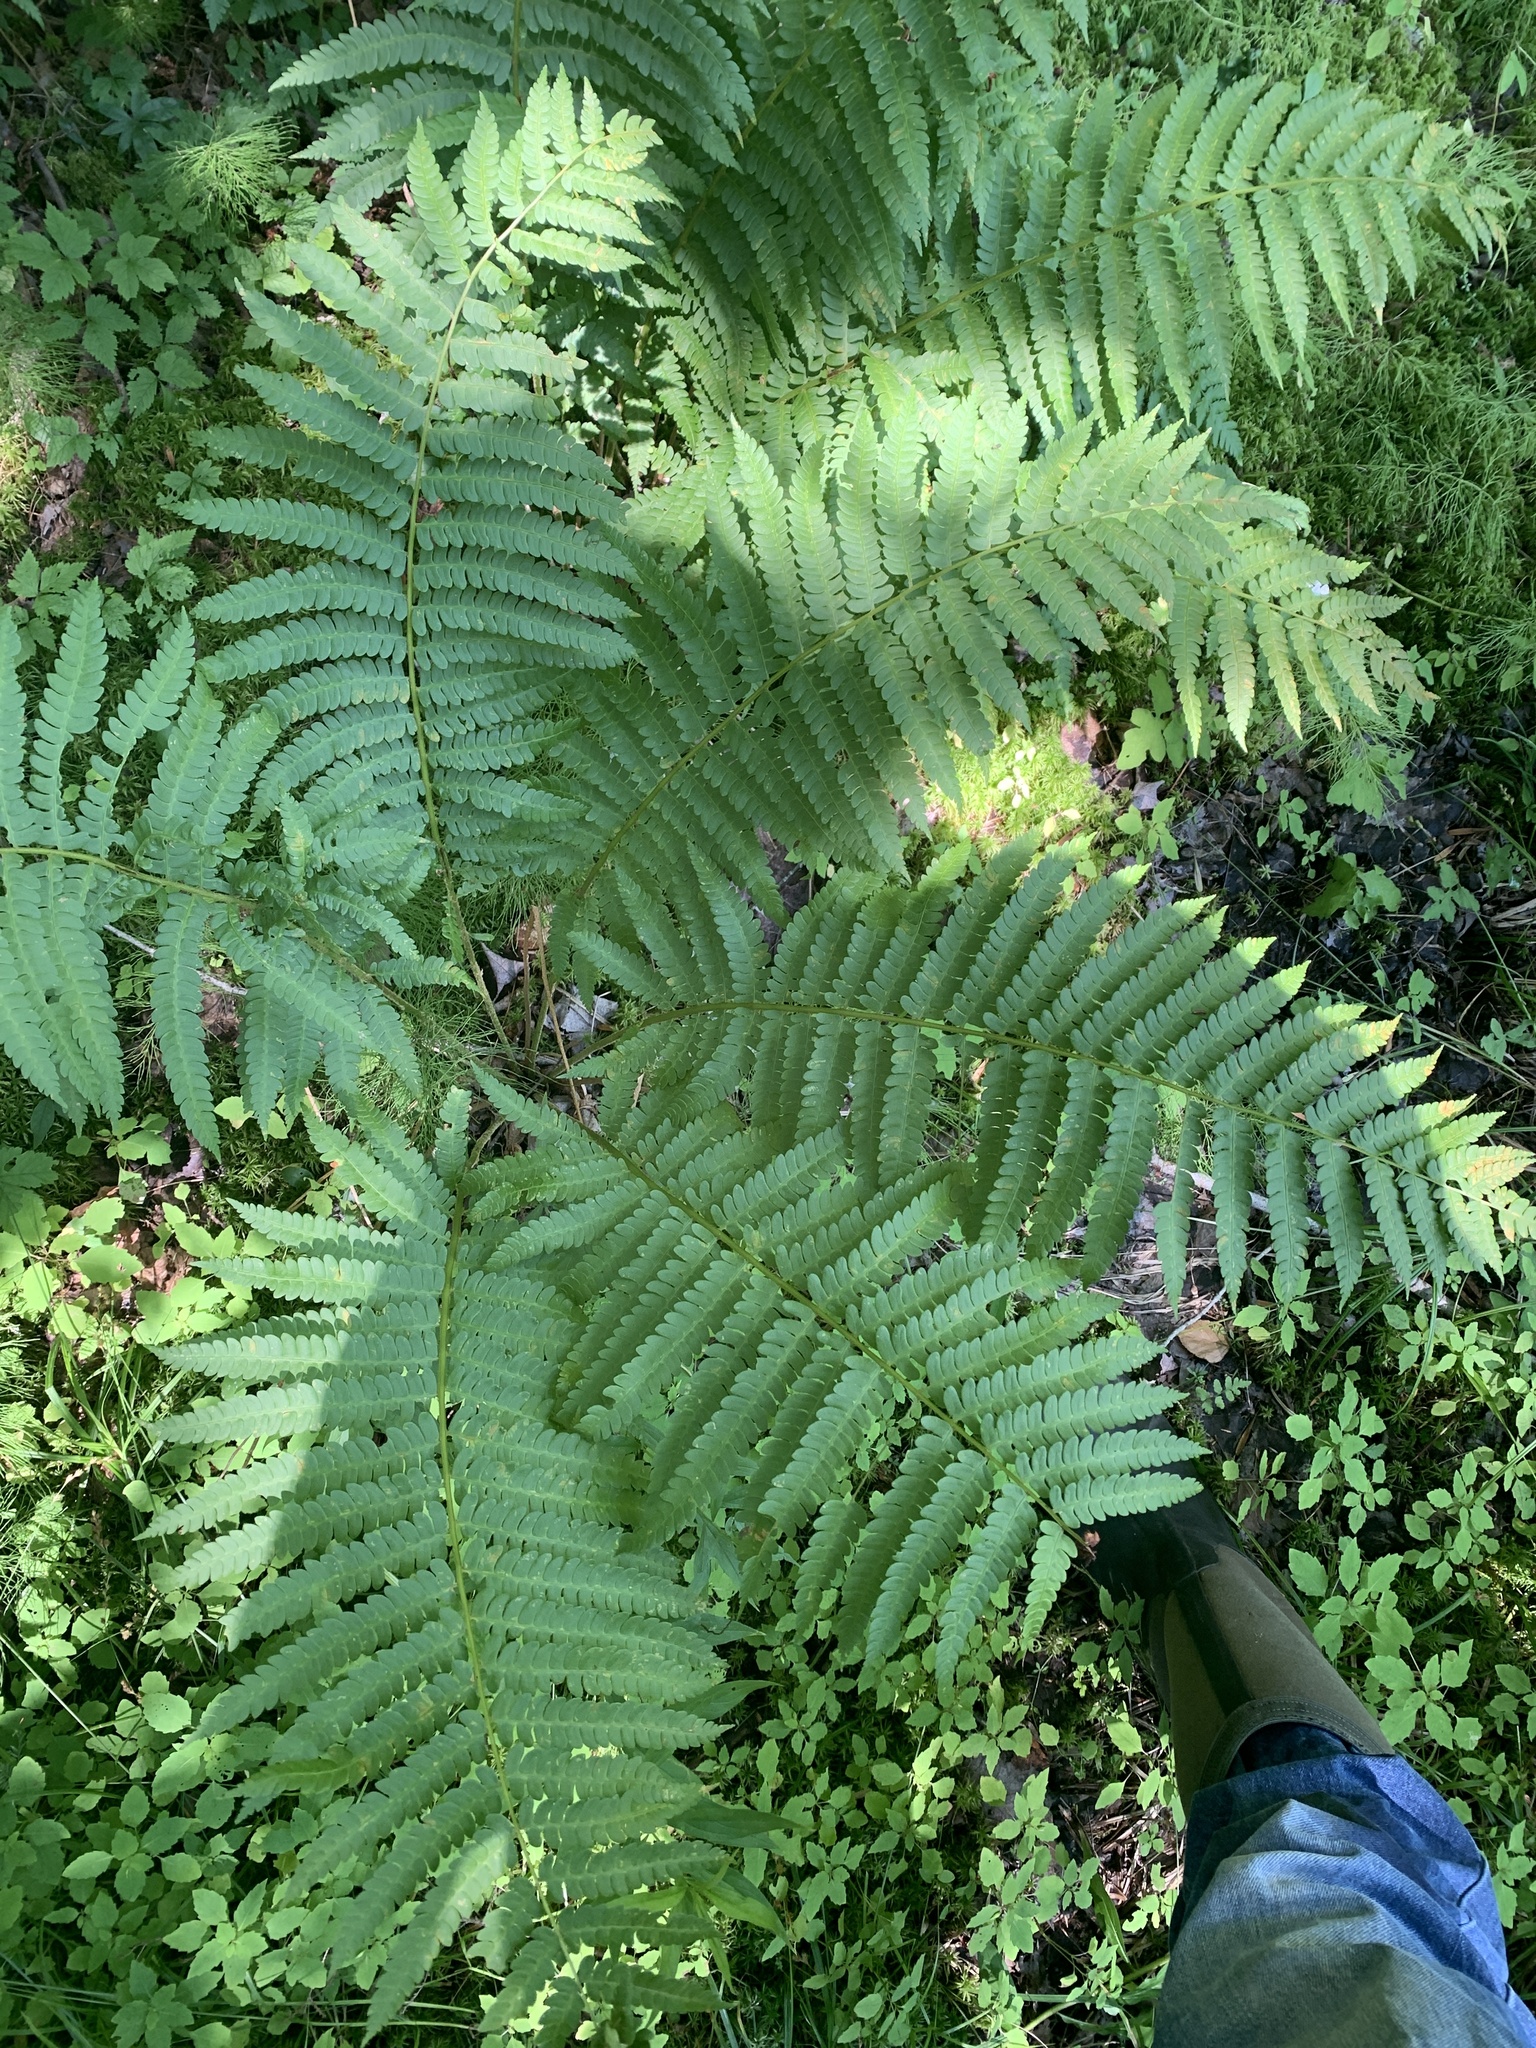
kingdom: Plantae
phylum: Tracheophyta
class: Polypodiopsida
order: Osmundales
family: Osmundaceae
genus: Osmundastrum
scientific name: Osmundastrum cinnamomeum
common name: Cinnamon fern
